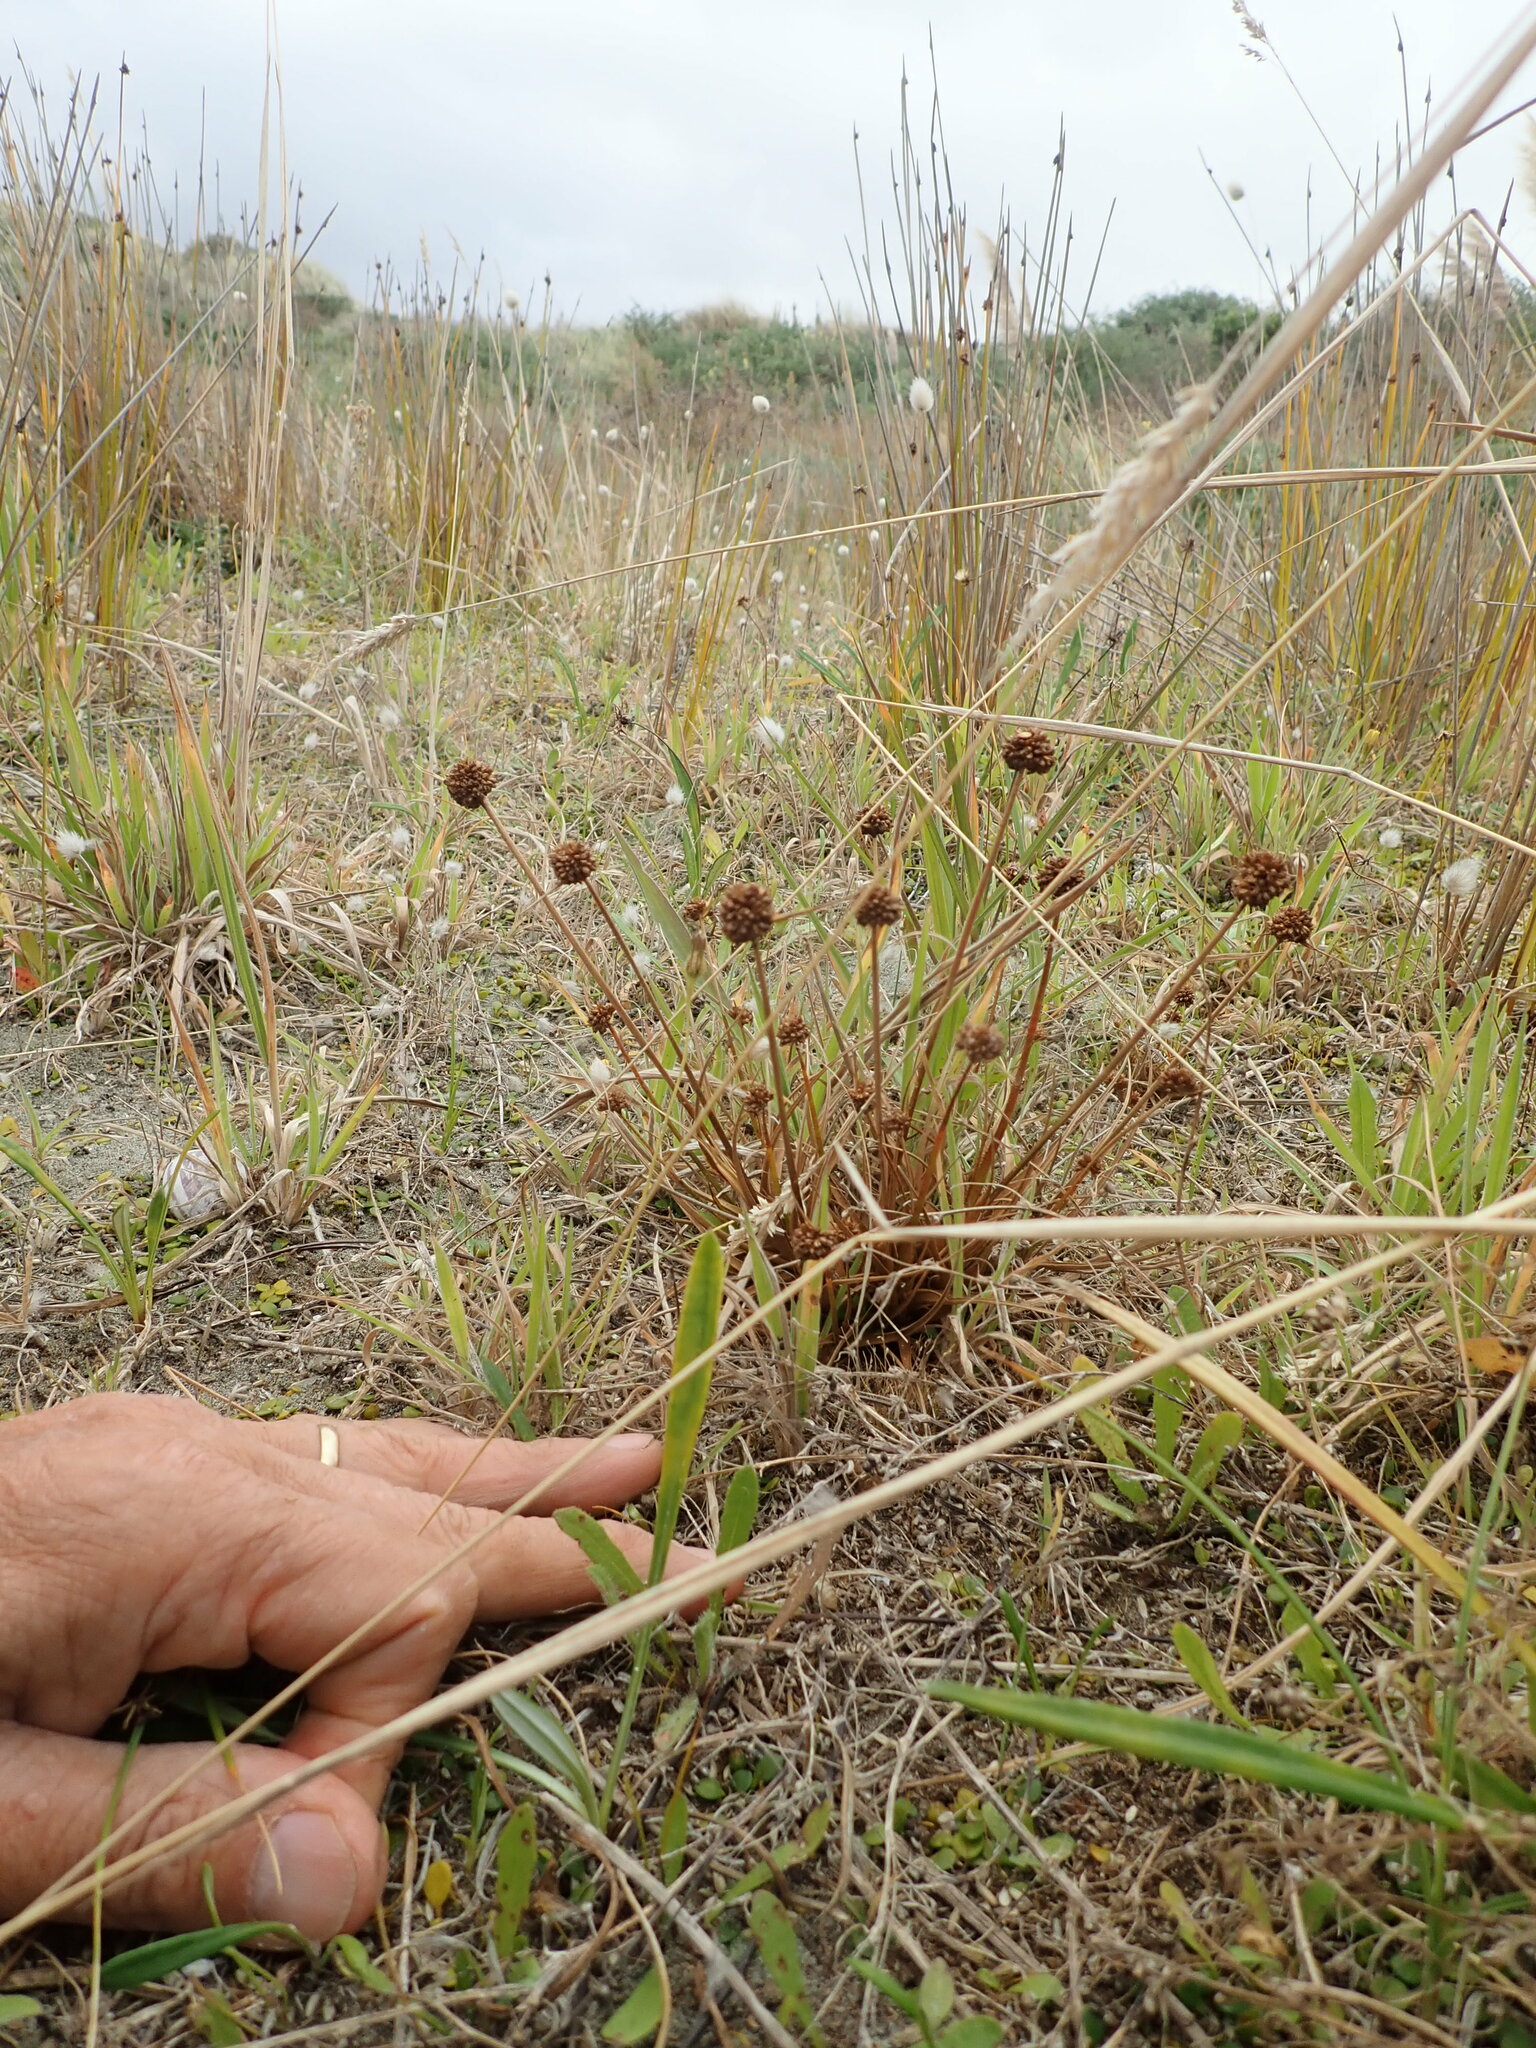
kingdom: Plantae
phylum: Tracheophyta
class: Liliopsida
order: Poales
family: Juncaceae
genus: Juncus
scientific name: Juncus caespiticius
